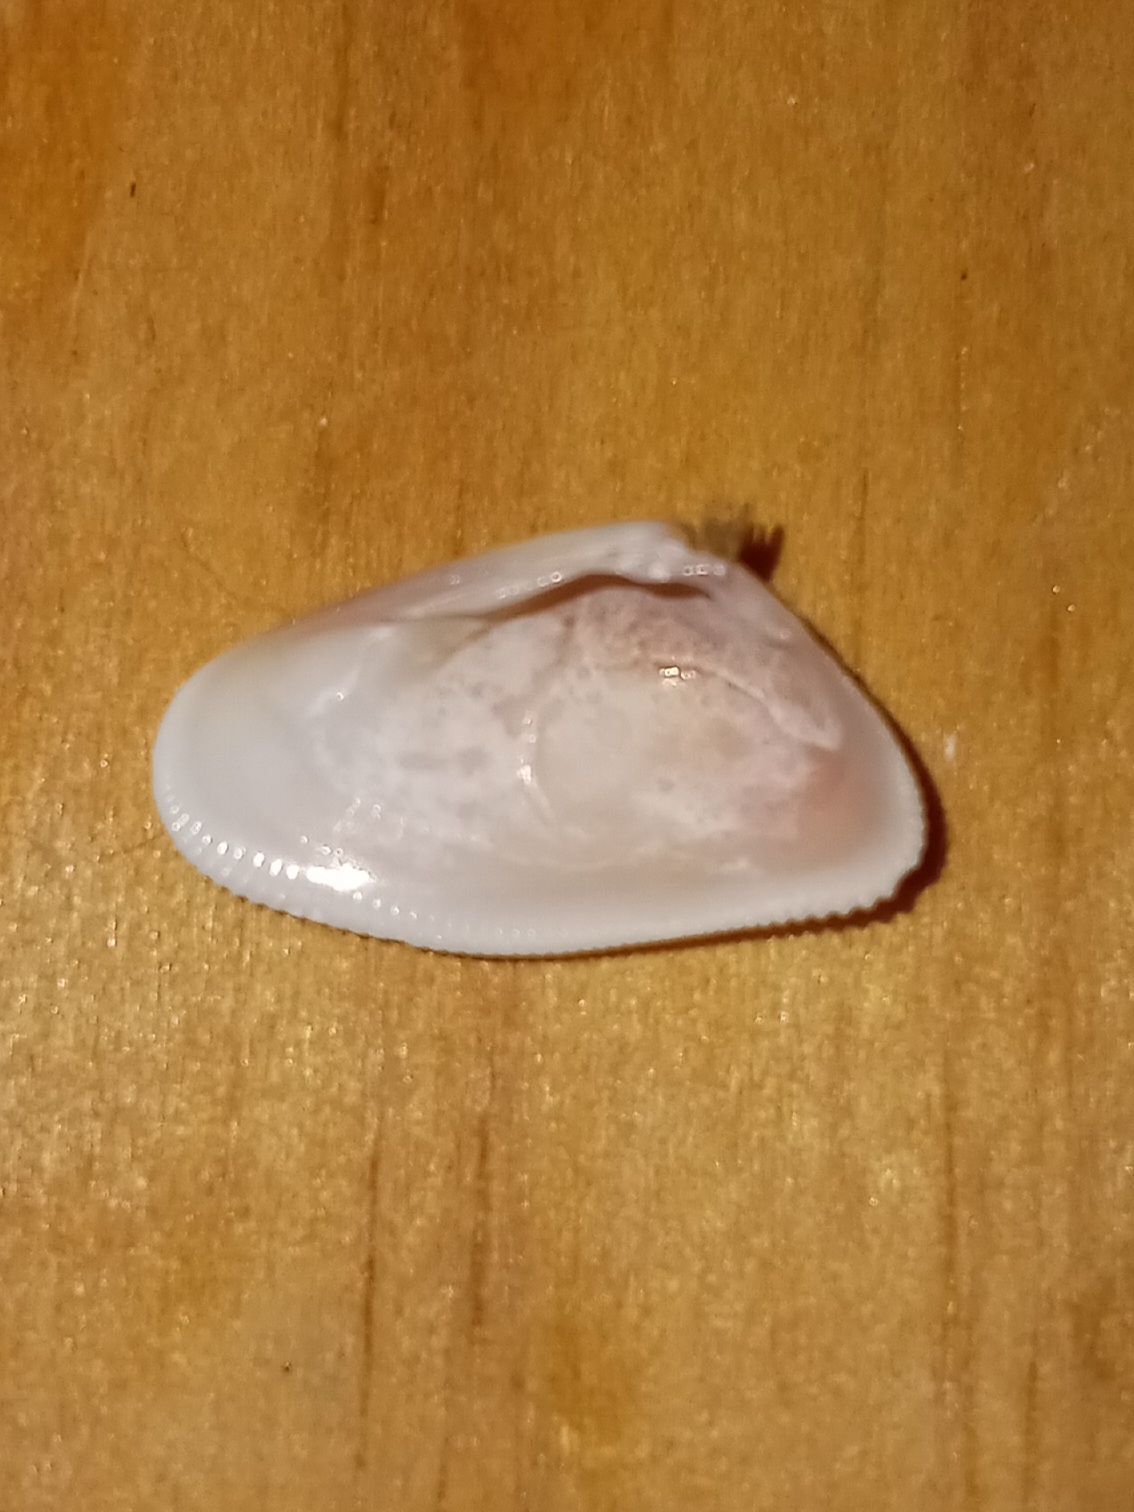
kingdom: Animalia
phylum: Mollusca
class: Bivalvia
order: Cardiida
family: Donacidae
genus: Donax
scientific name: Donax variabilis
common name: Butterfly shell
